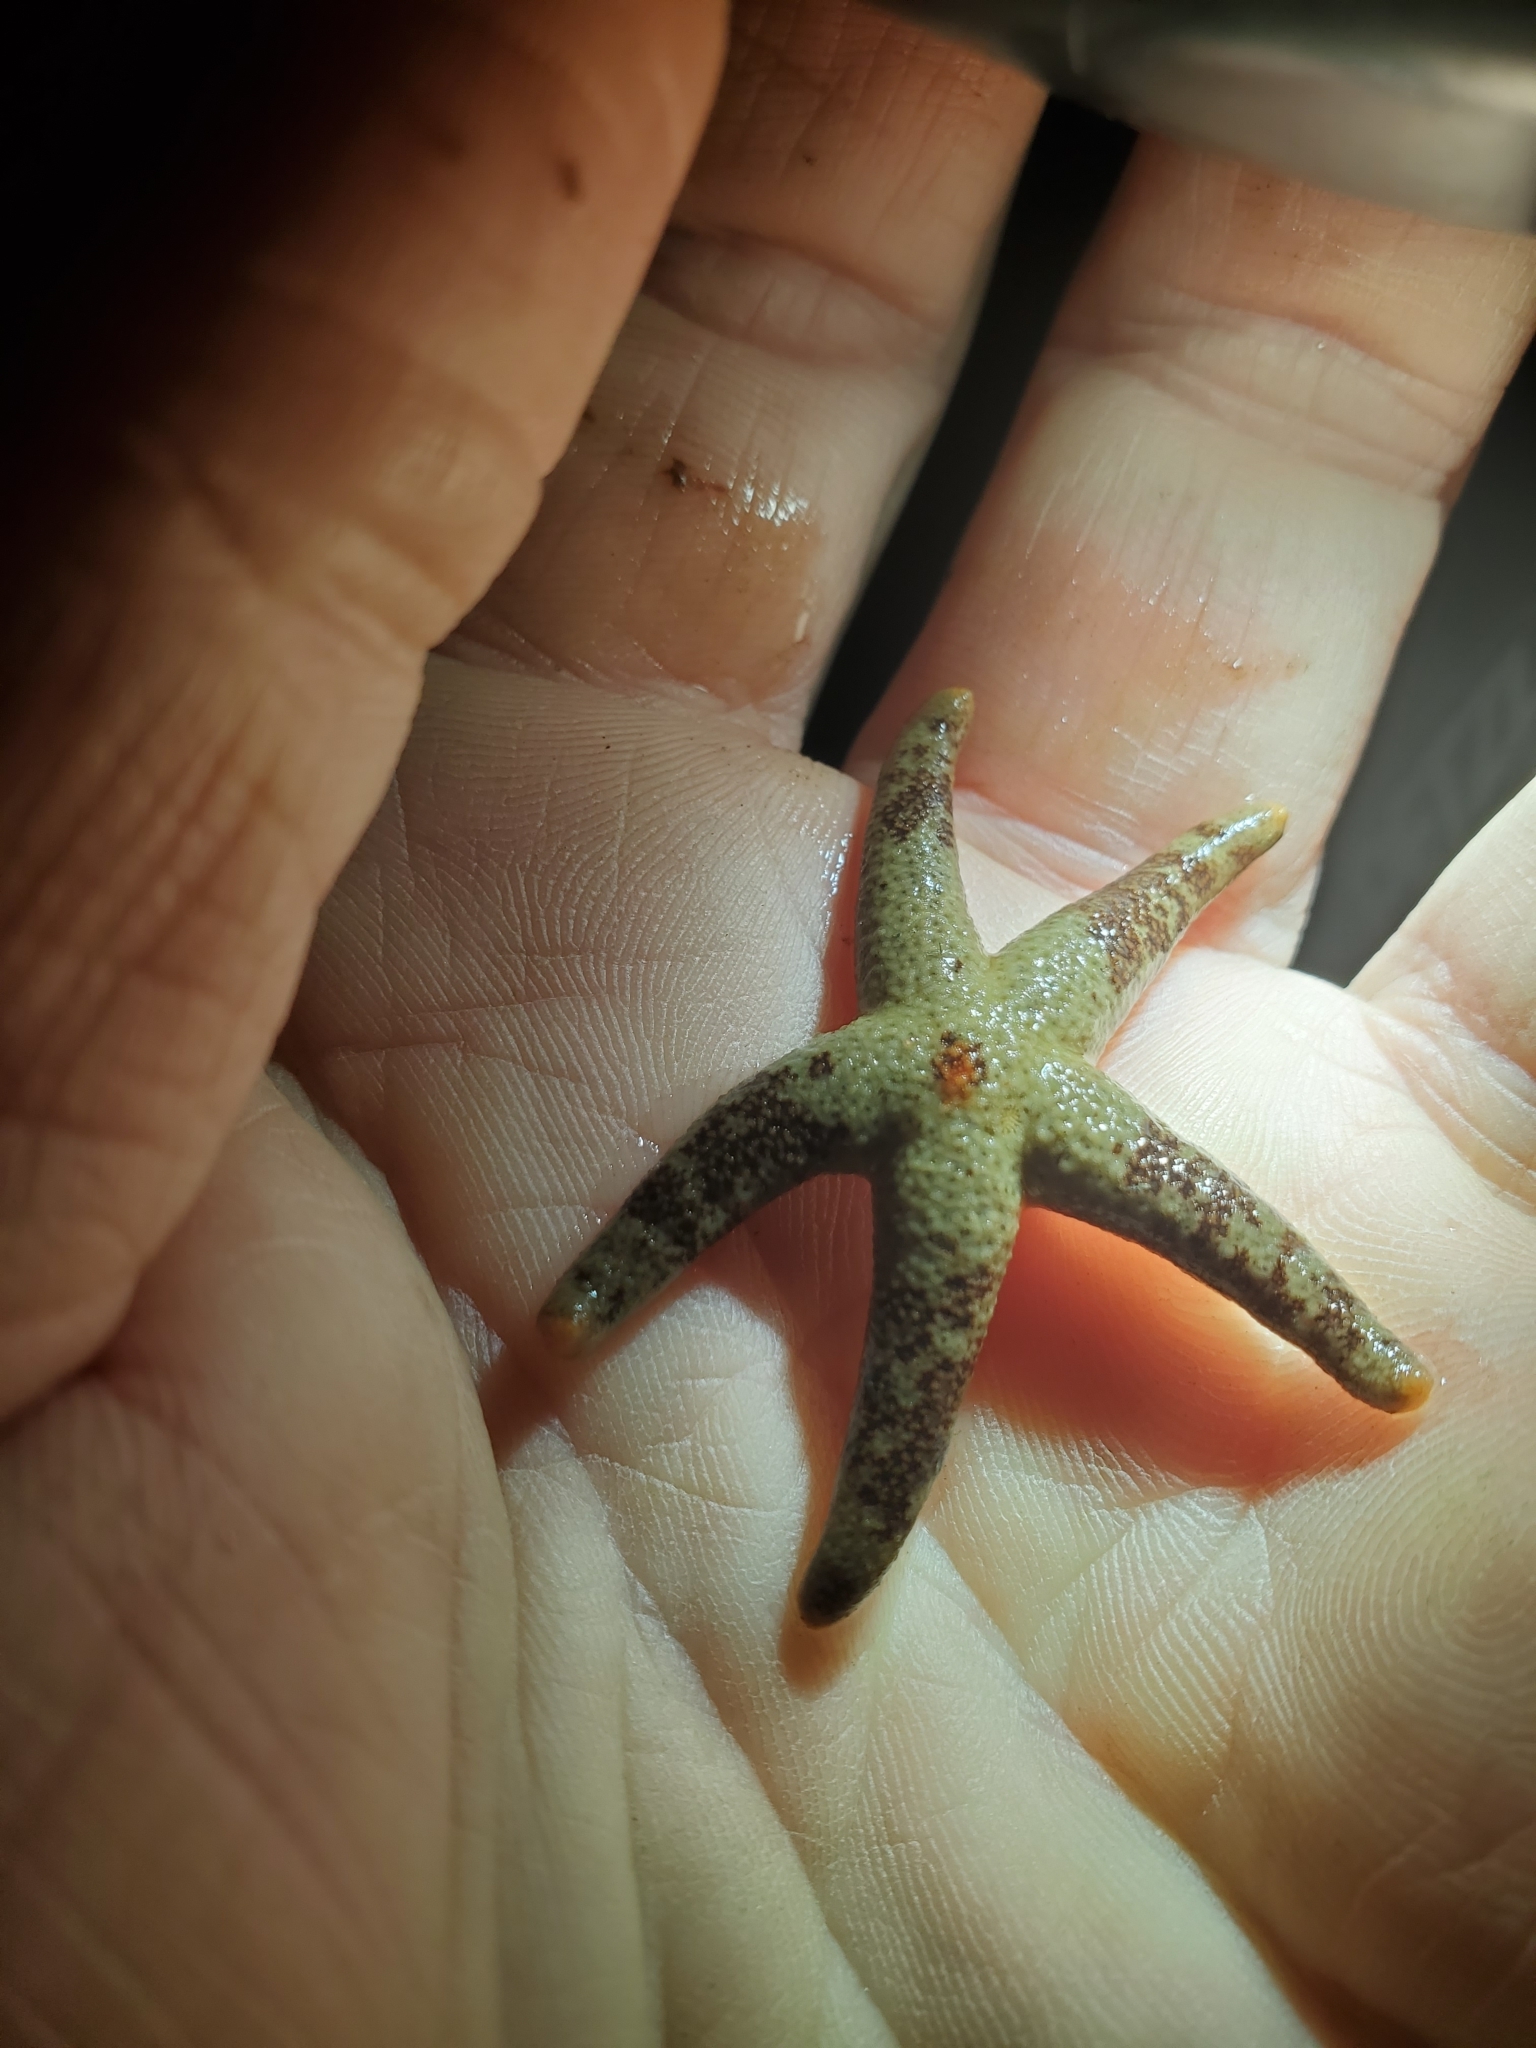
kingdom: Animalia
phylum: Echinodermata
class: Asteroidea
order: Spinulosida
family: Echinasteridae
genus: Henricia
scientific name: Henricia pumila
